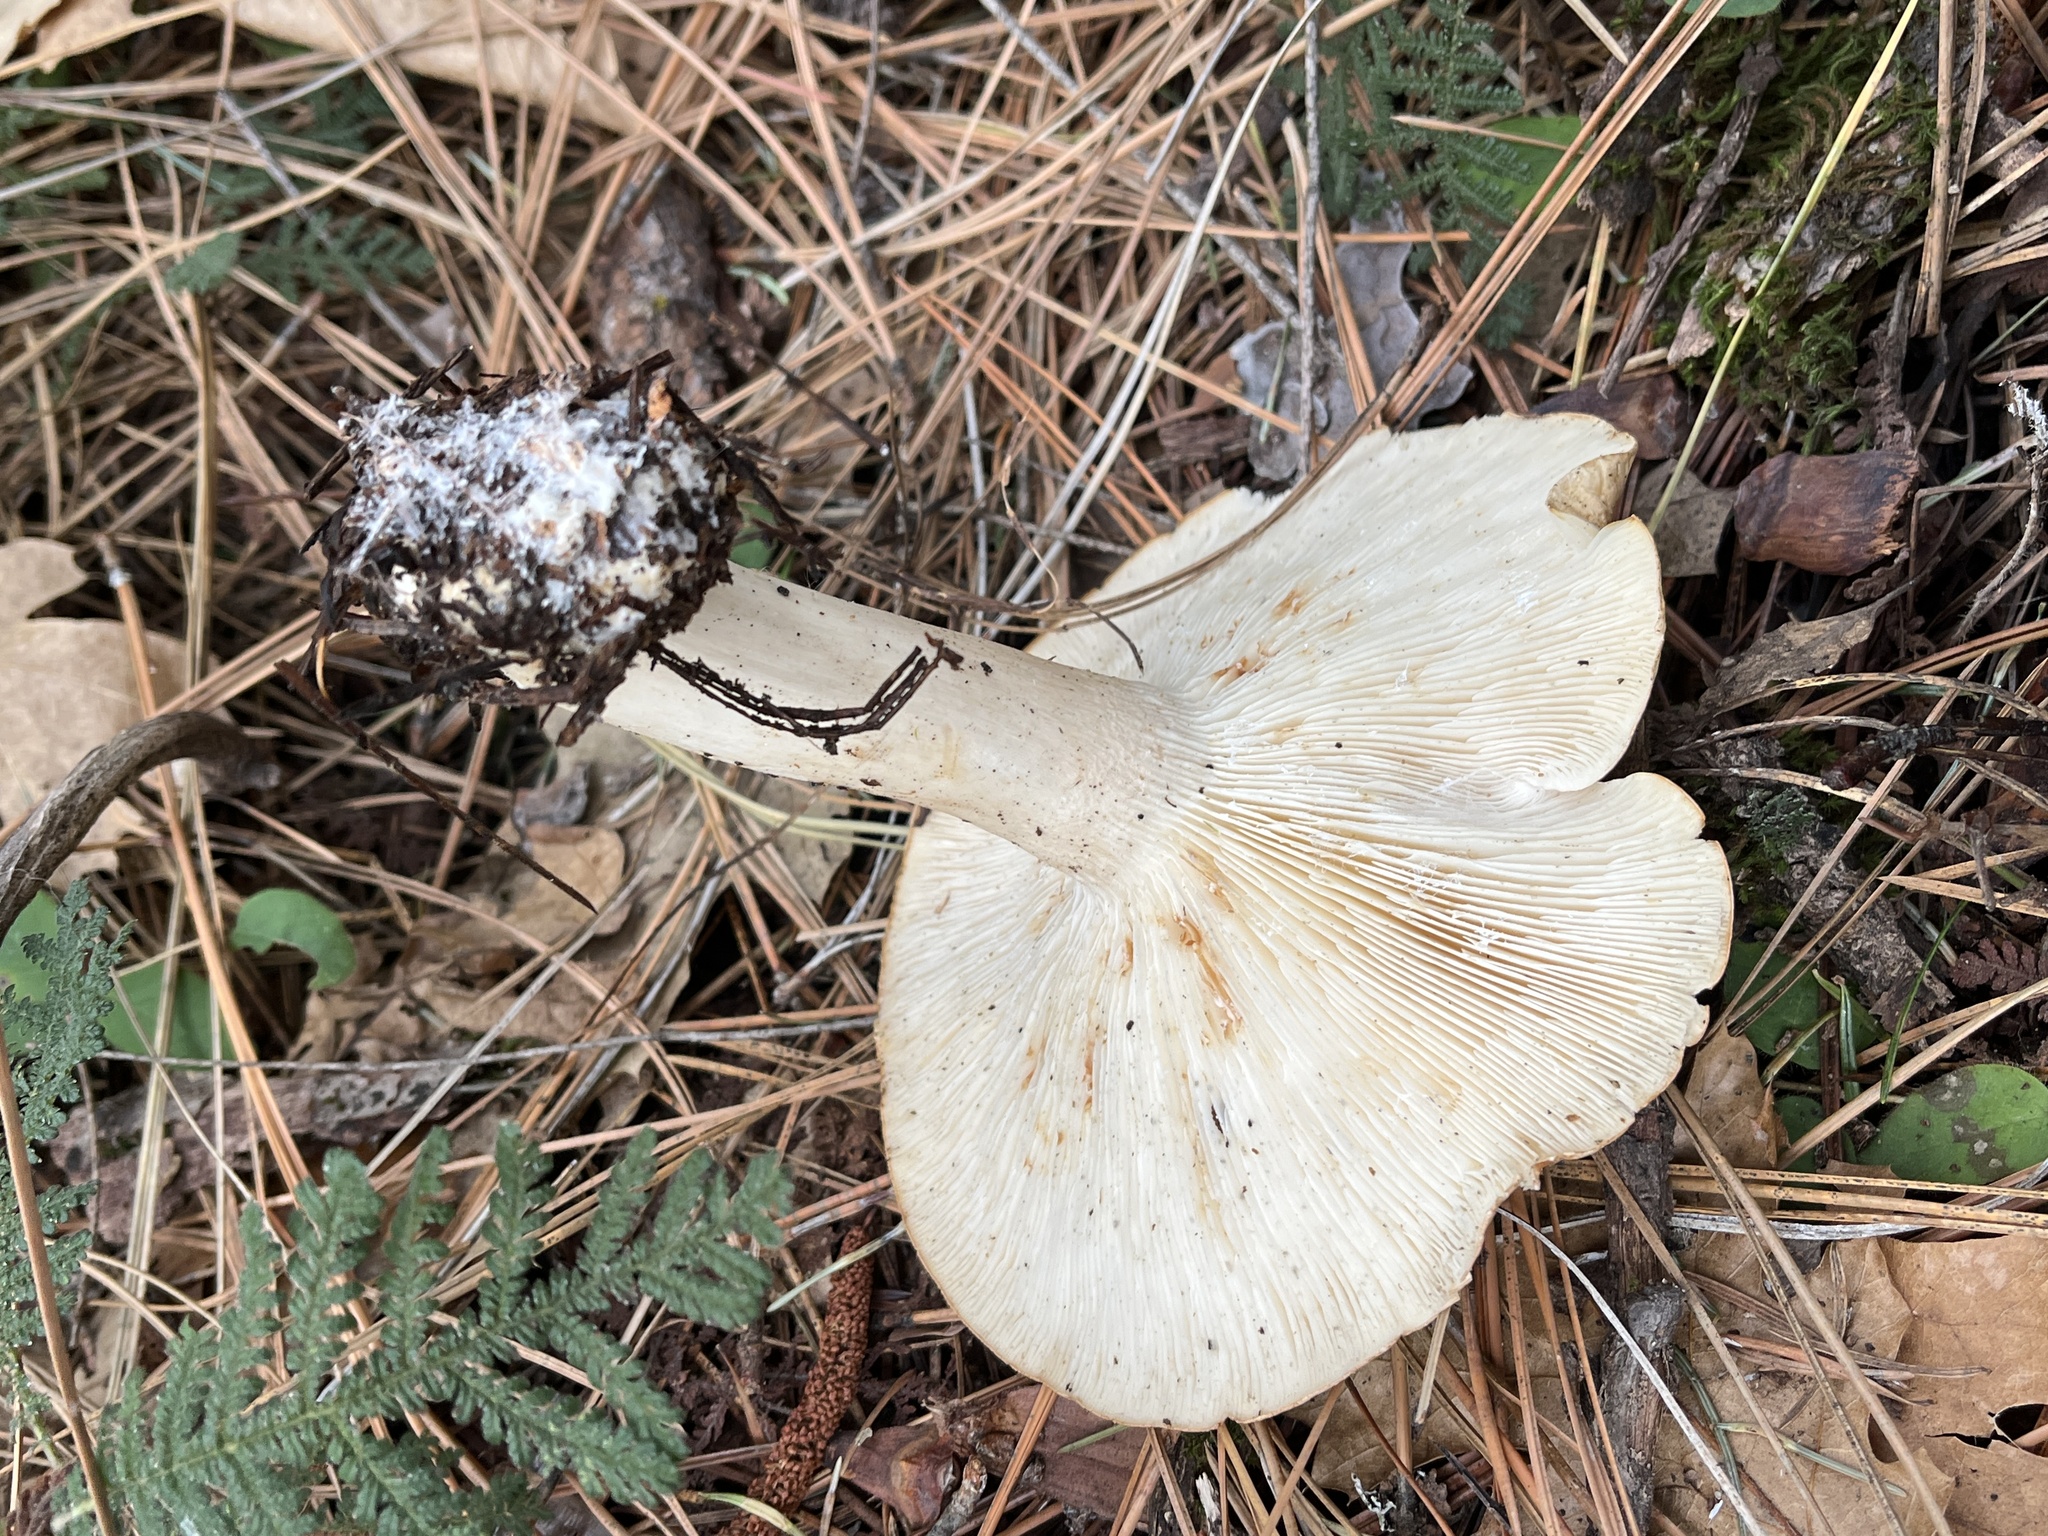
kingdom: Fungi
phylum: Basidiomycota
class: Agaricomycetes
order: Agaricales
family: Tricholomataceae
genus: Leucopaxillus
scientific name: Leucopaxillus gentianeus
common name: Bitter funnel
